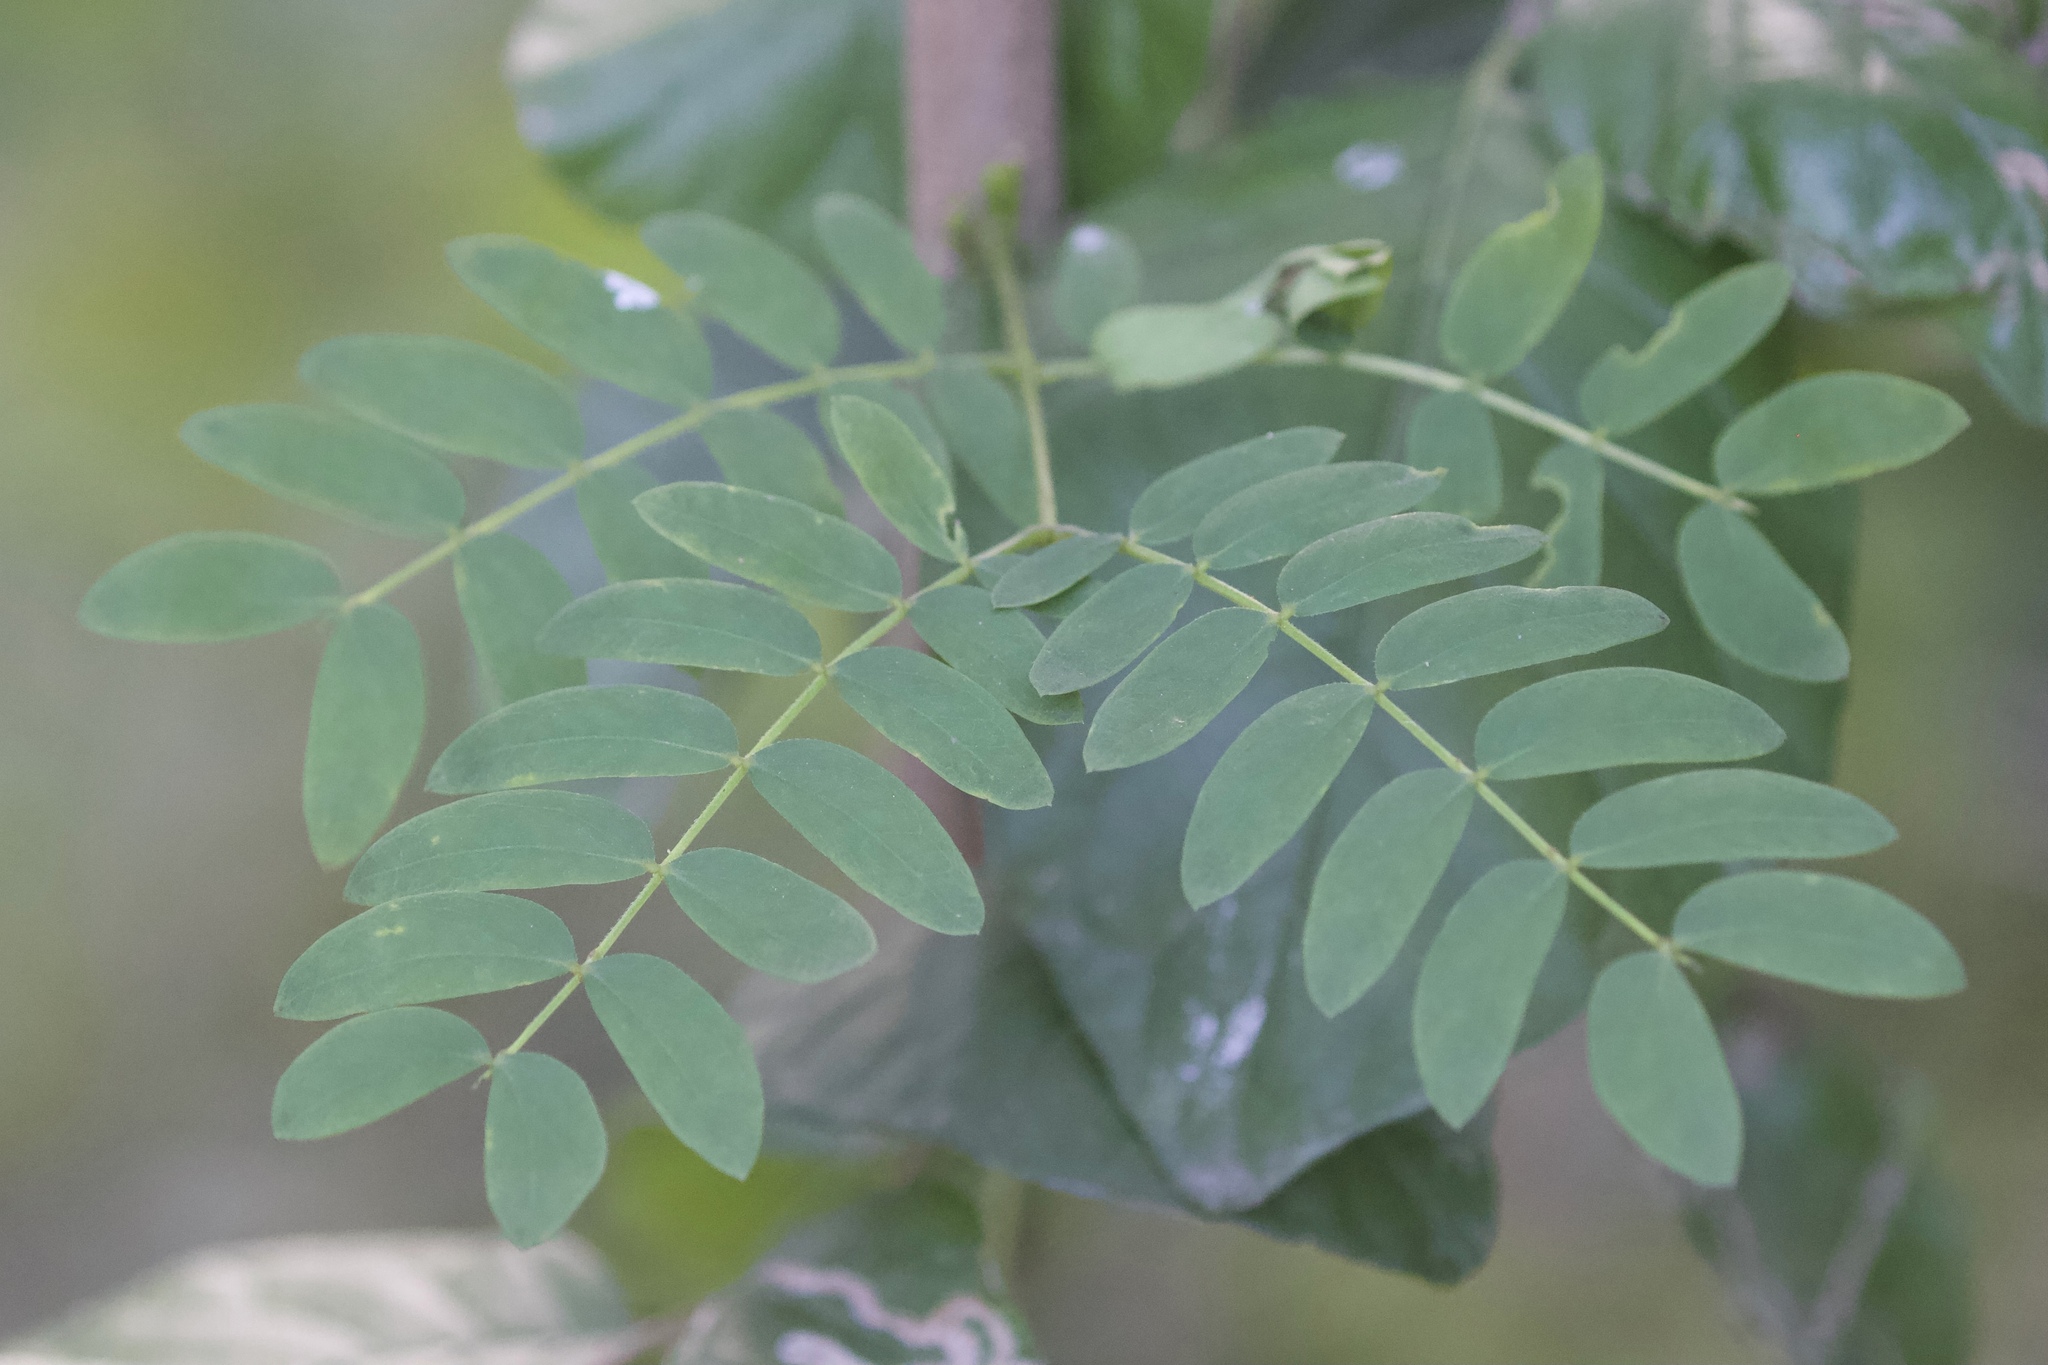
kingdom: Plantae
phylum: Tracheophyta
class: Magnoliopsida
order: Fabales
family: Fabaceae
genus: Leucaena
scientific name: Leucaena leucocephala
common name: White leadtree
